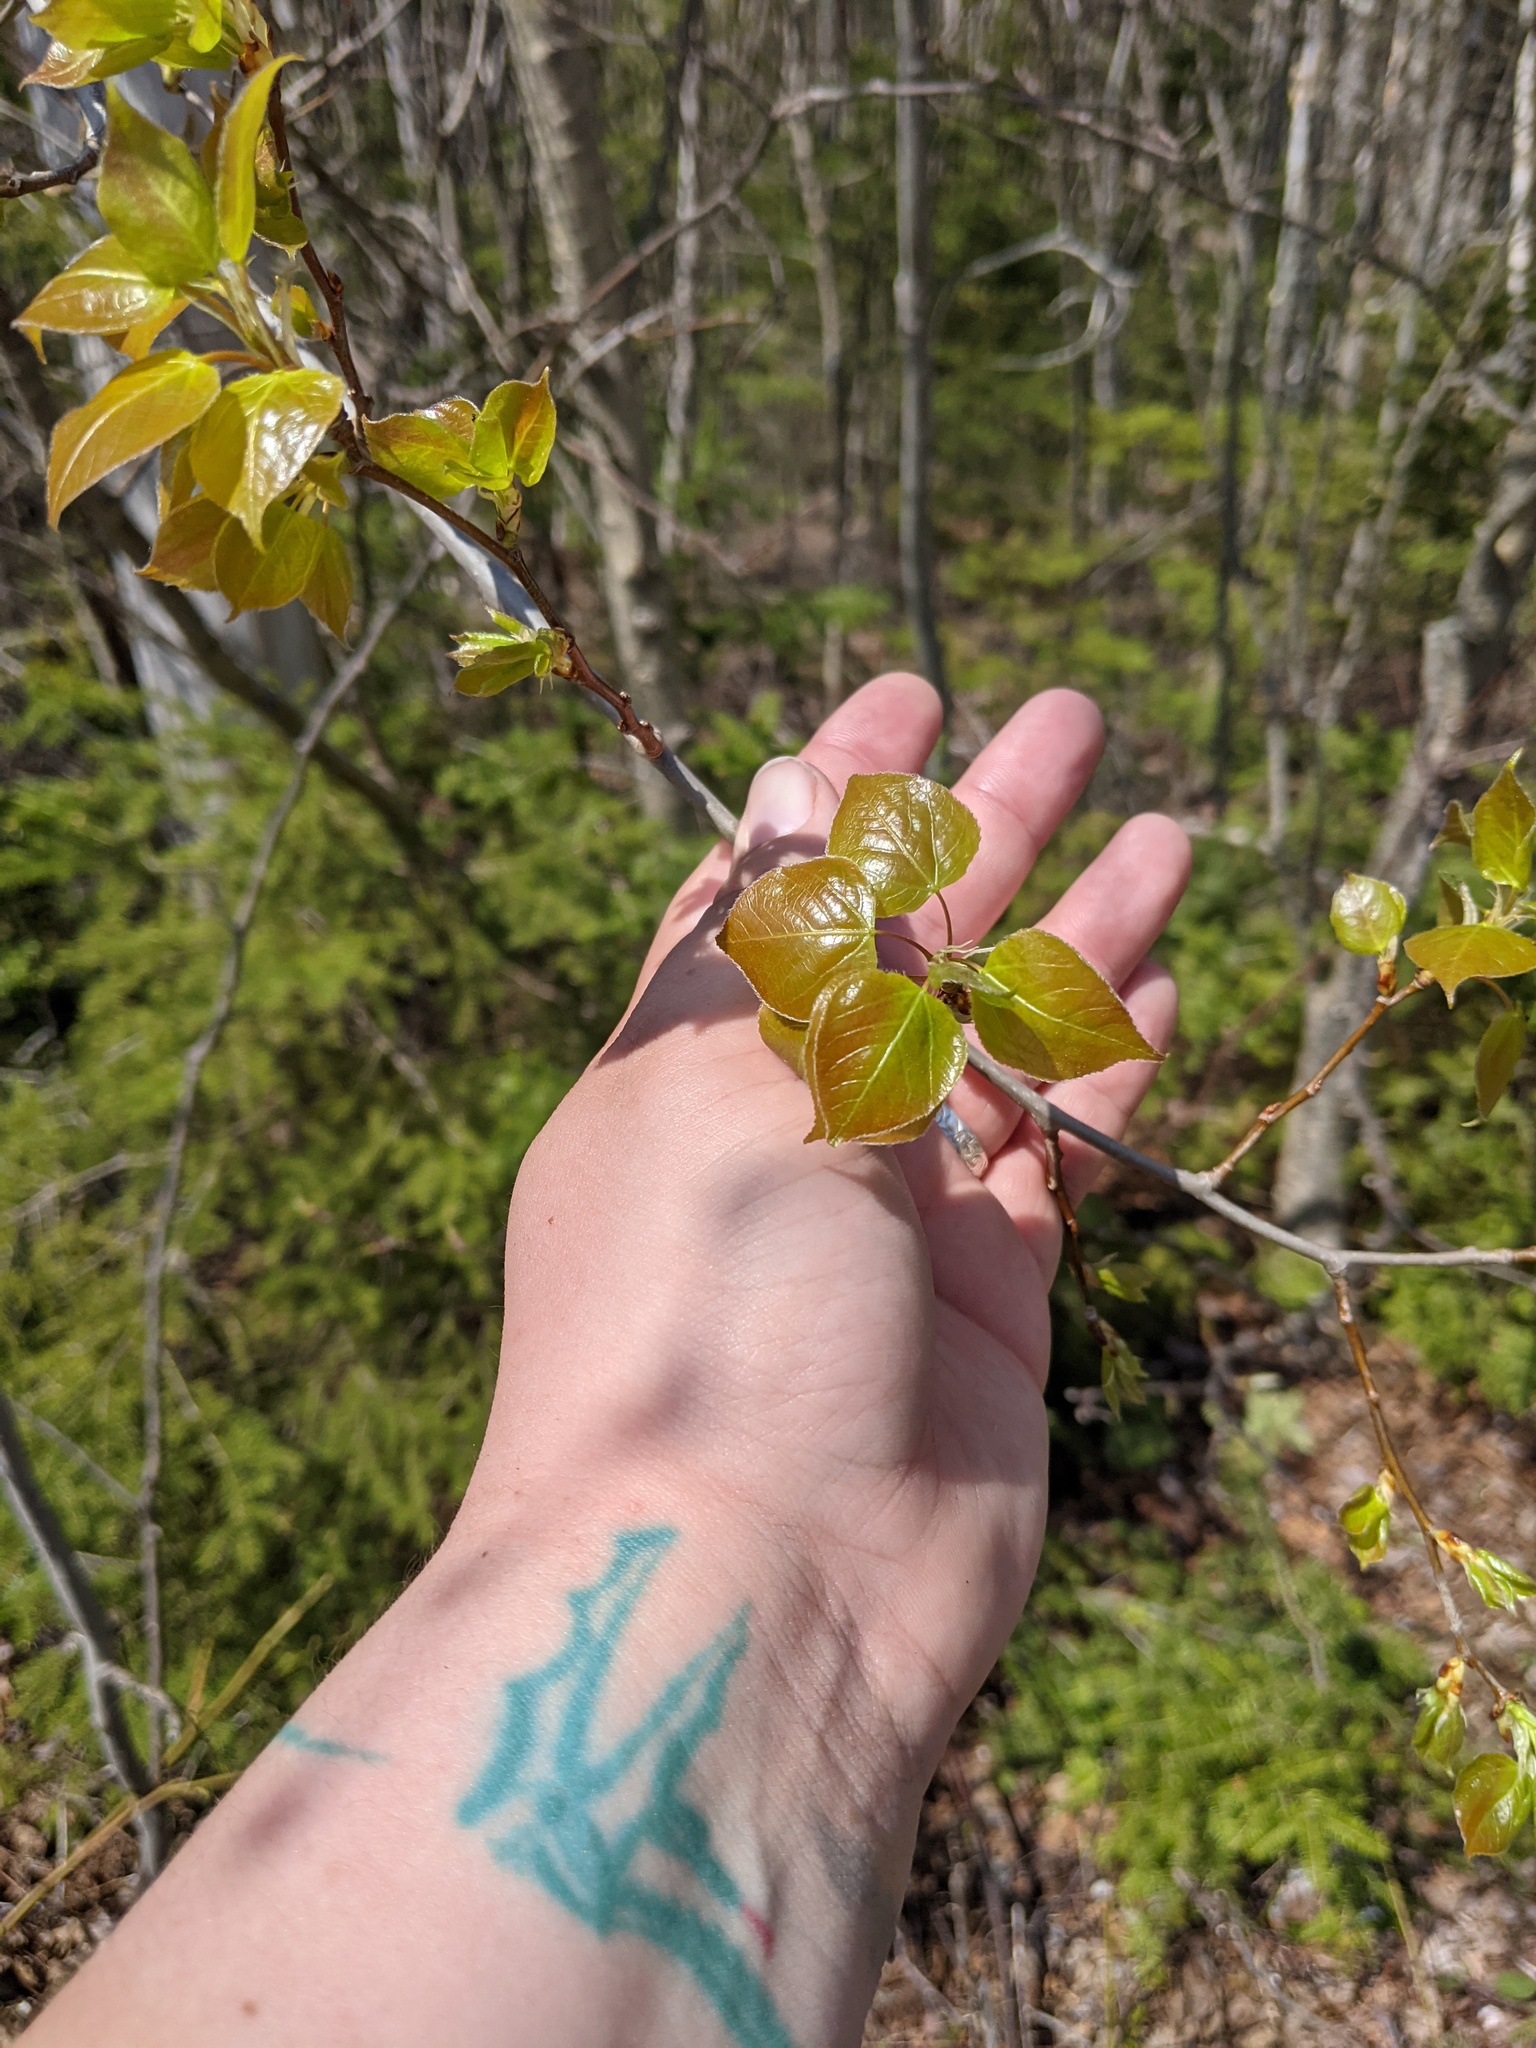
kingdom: Plantae
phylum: Tracheophyta
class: Magnoliopsida
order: Malpighiales
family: Salicaceae
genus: Populus
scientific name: Populus tremuloides
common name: Quaking aspen
